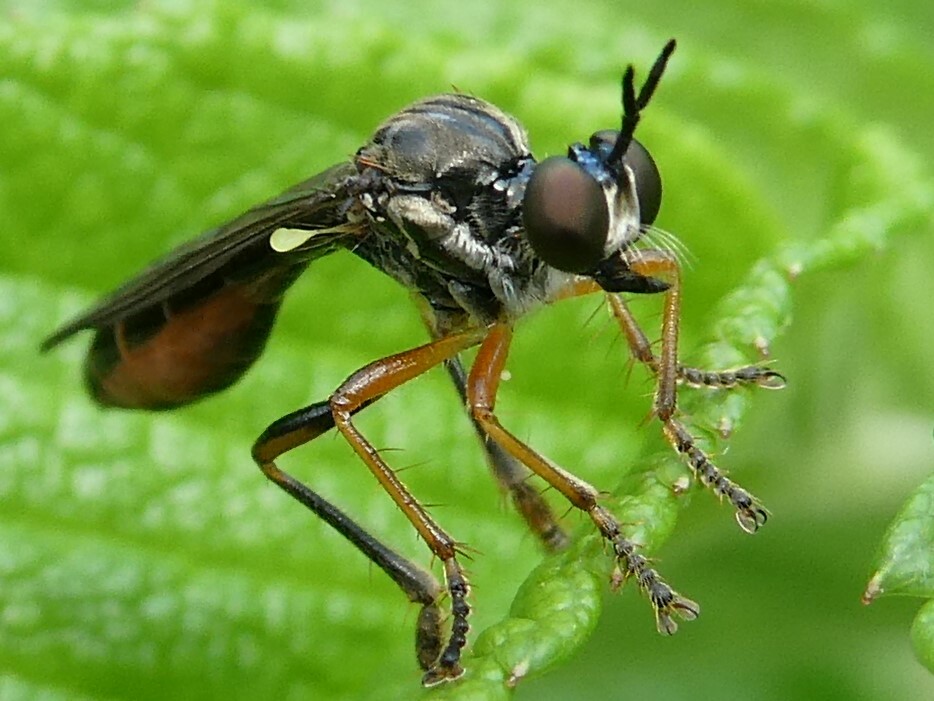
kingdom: Animalia
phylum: Arthropoda
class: Insecta
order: Diptera
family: Asilidae
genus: Dioctria
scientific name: Dioctria hyalipennis
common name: Stripe-legged robberfly
